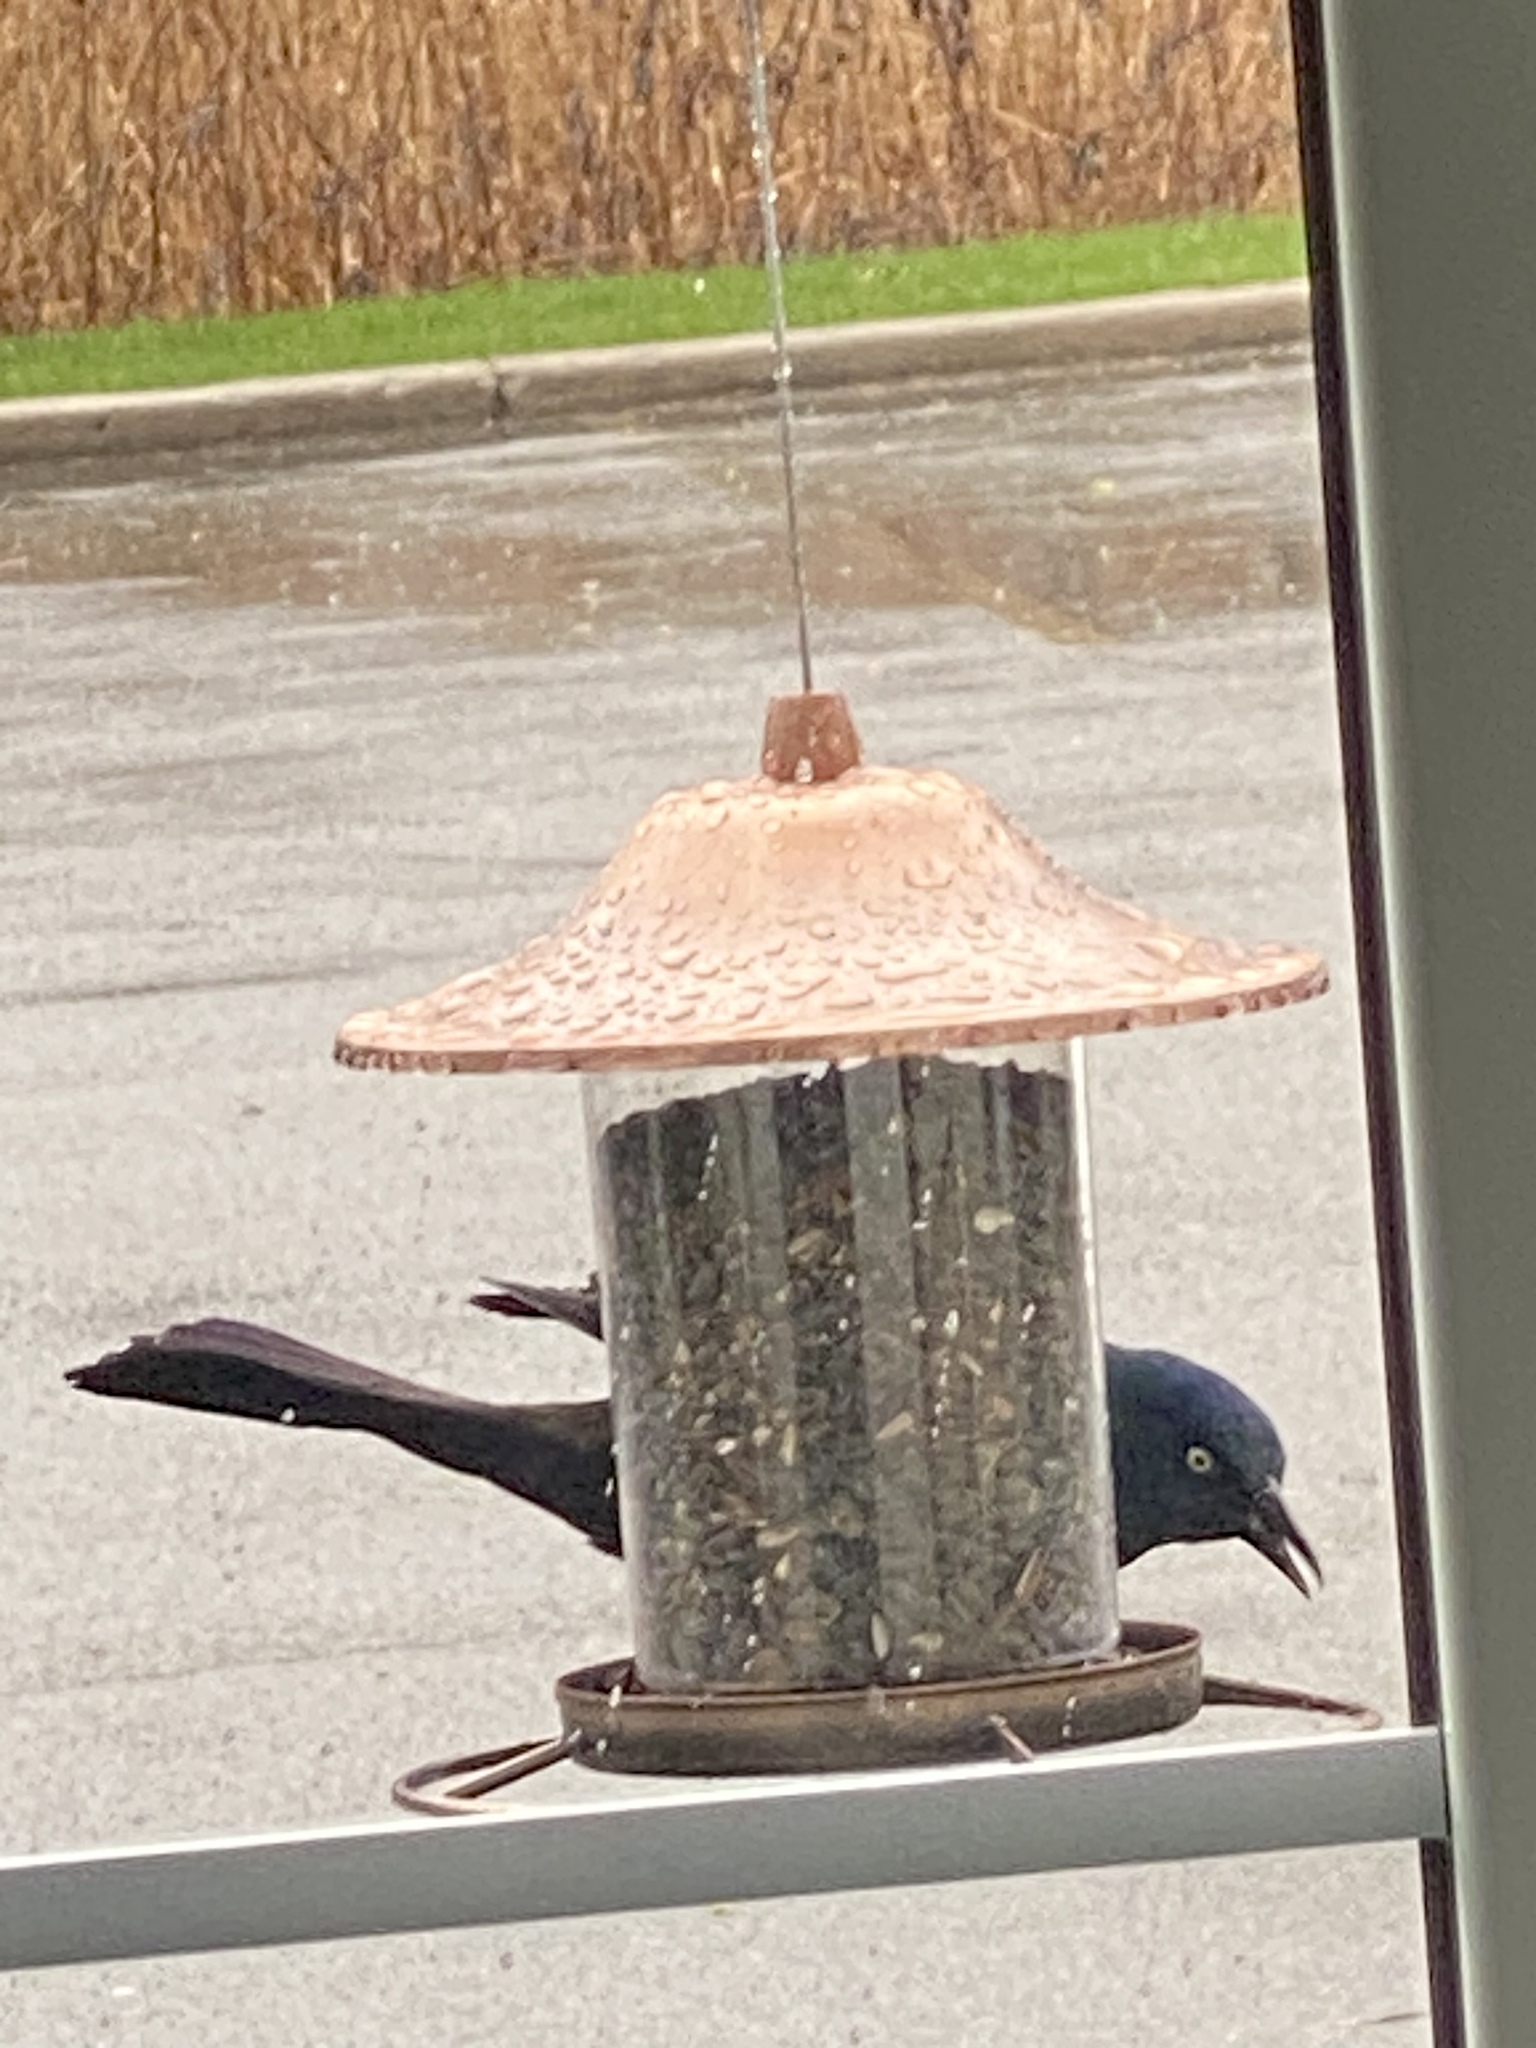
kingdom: Animalia
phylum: Chordata
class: Aves
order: Passeriformes
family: Icteridae
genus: Quiscalus
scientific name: Quiscalus quiscula
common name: Common grackle
